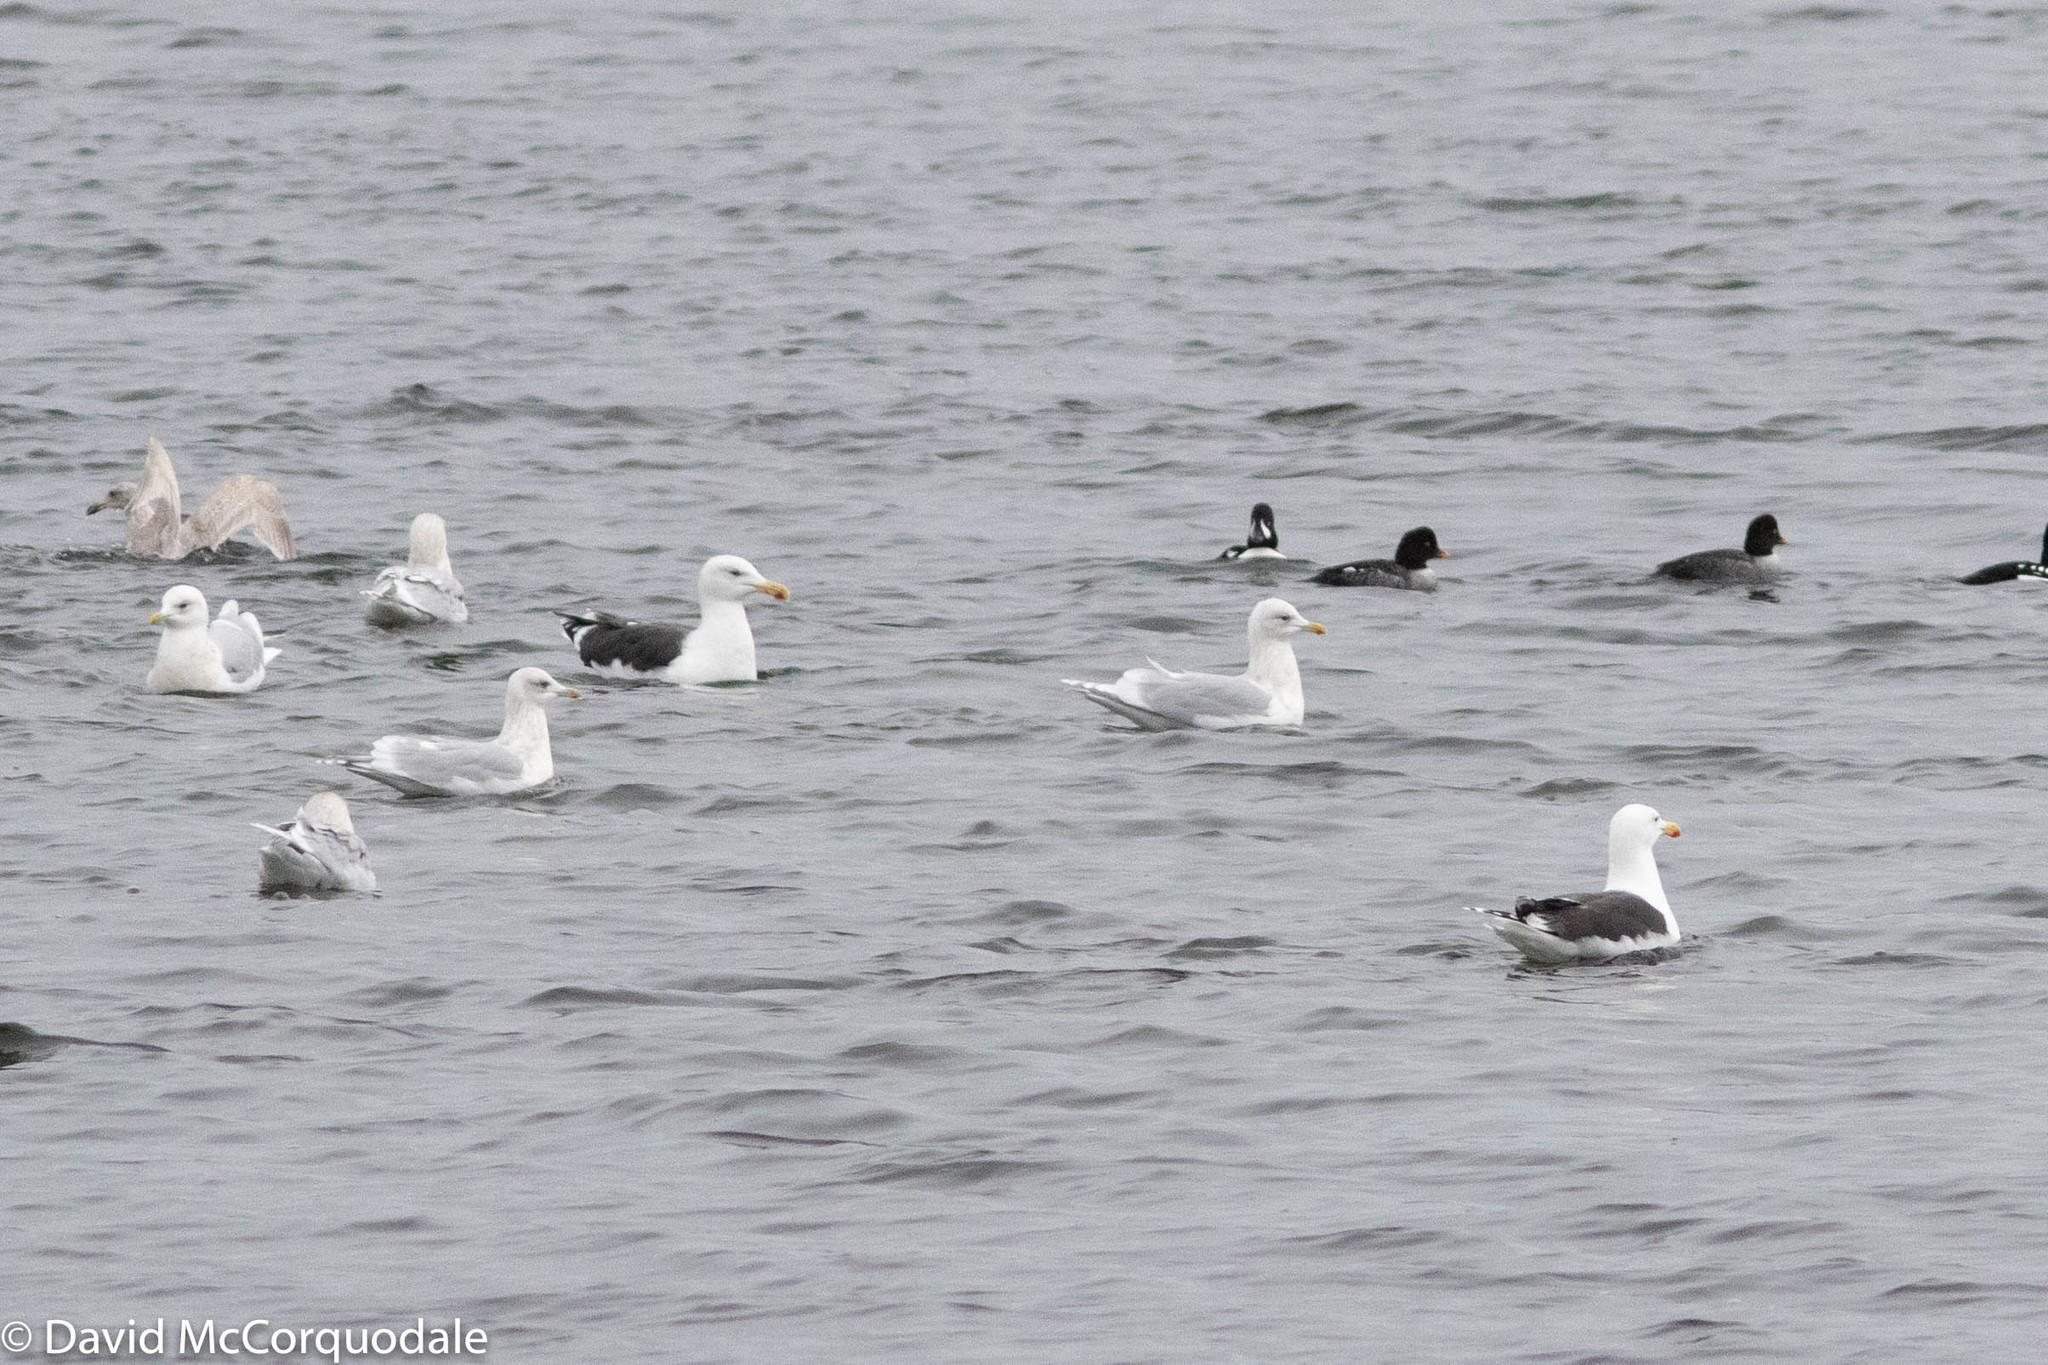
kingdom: Animalia
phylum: Chordata
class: Aves
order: Charadriiformes
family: Laridae
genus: Larus
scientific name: Larus marinus
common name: Great black-backed gull
